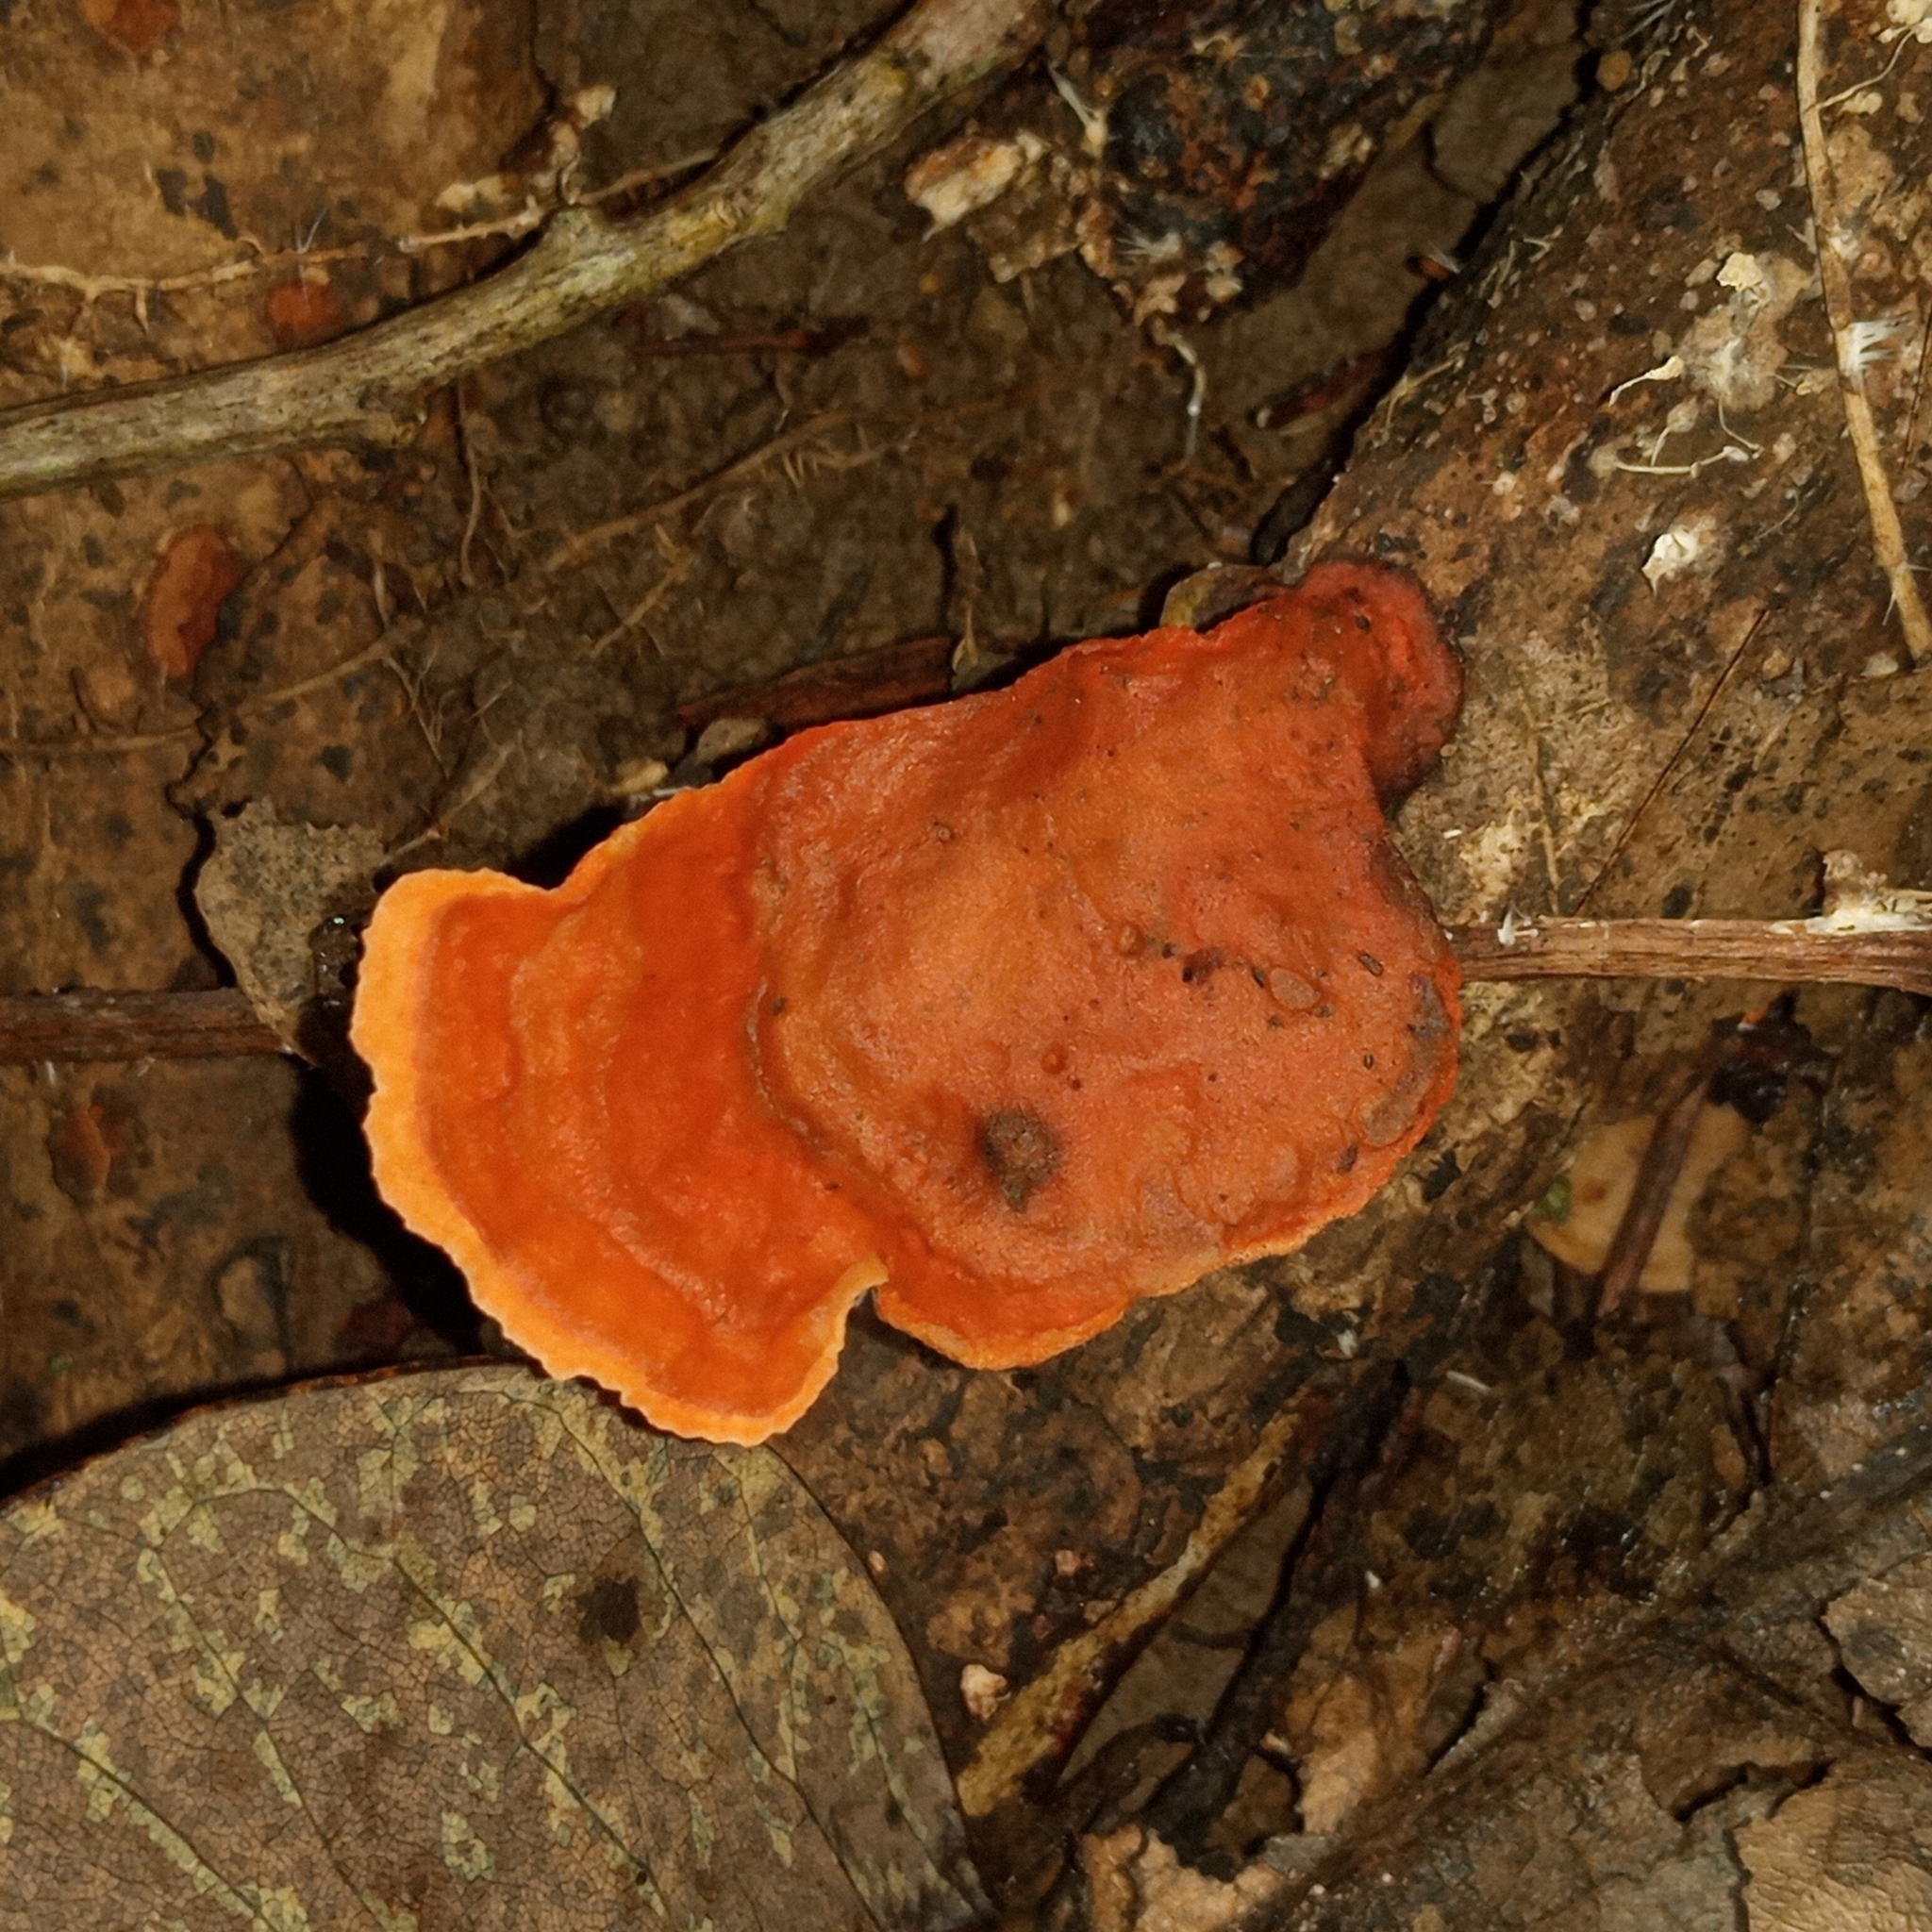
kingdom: Fungi
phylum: Basidiomycota
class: Agaricomycetes
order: Polyporales
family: Polyporaceae
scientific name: Polyporaceae
